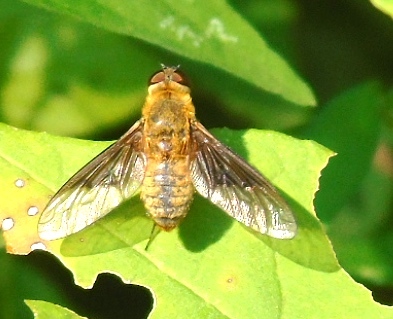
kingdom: Animalia
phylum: Arthropoda
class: Insecta
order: Diptera
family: Bombyliidae
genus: Chrysanthrax
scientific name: Chrysanthrax
